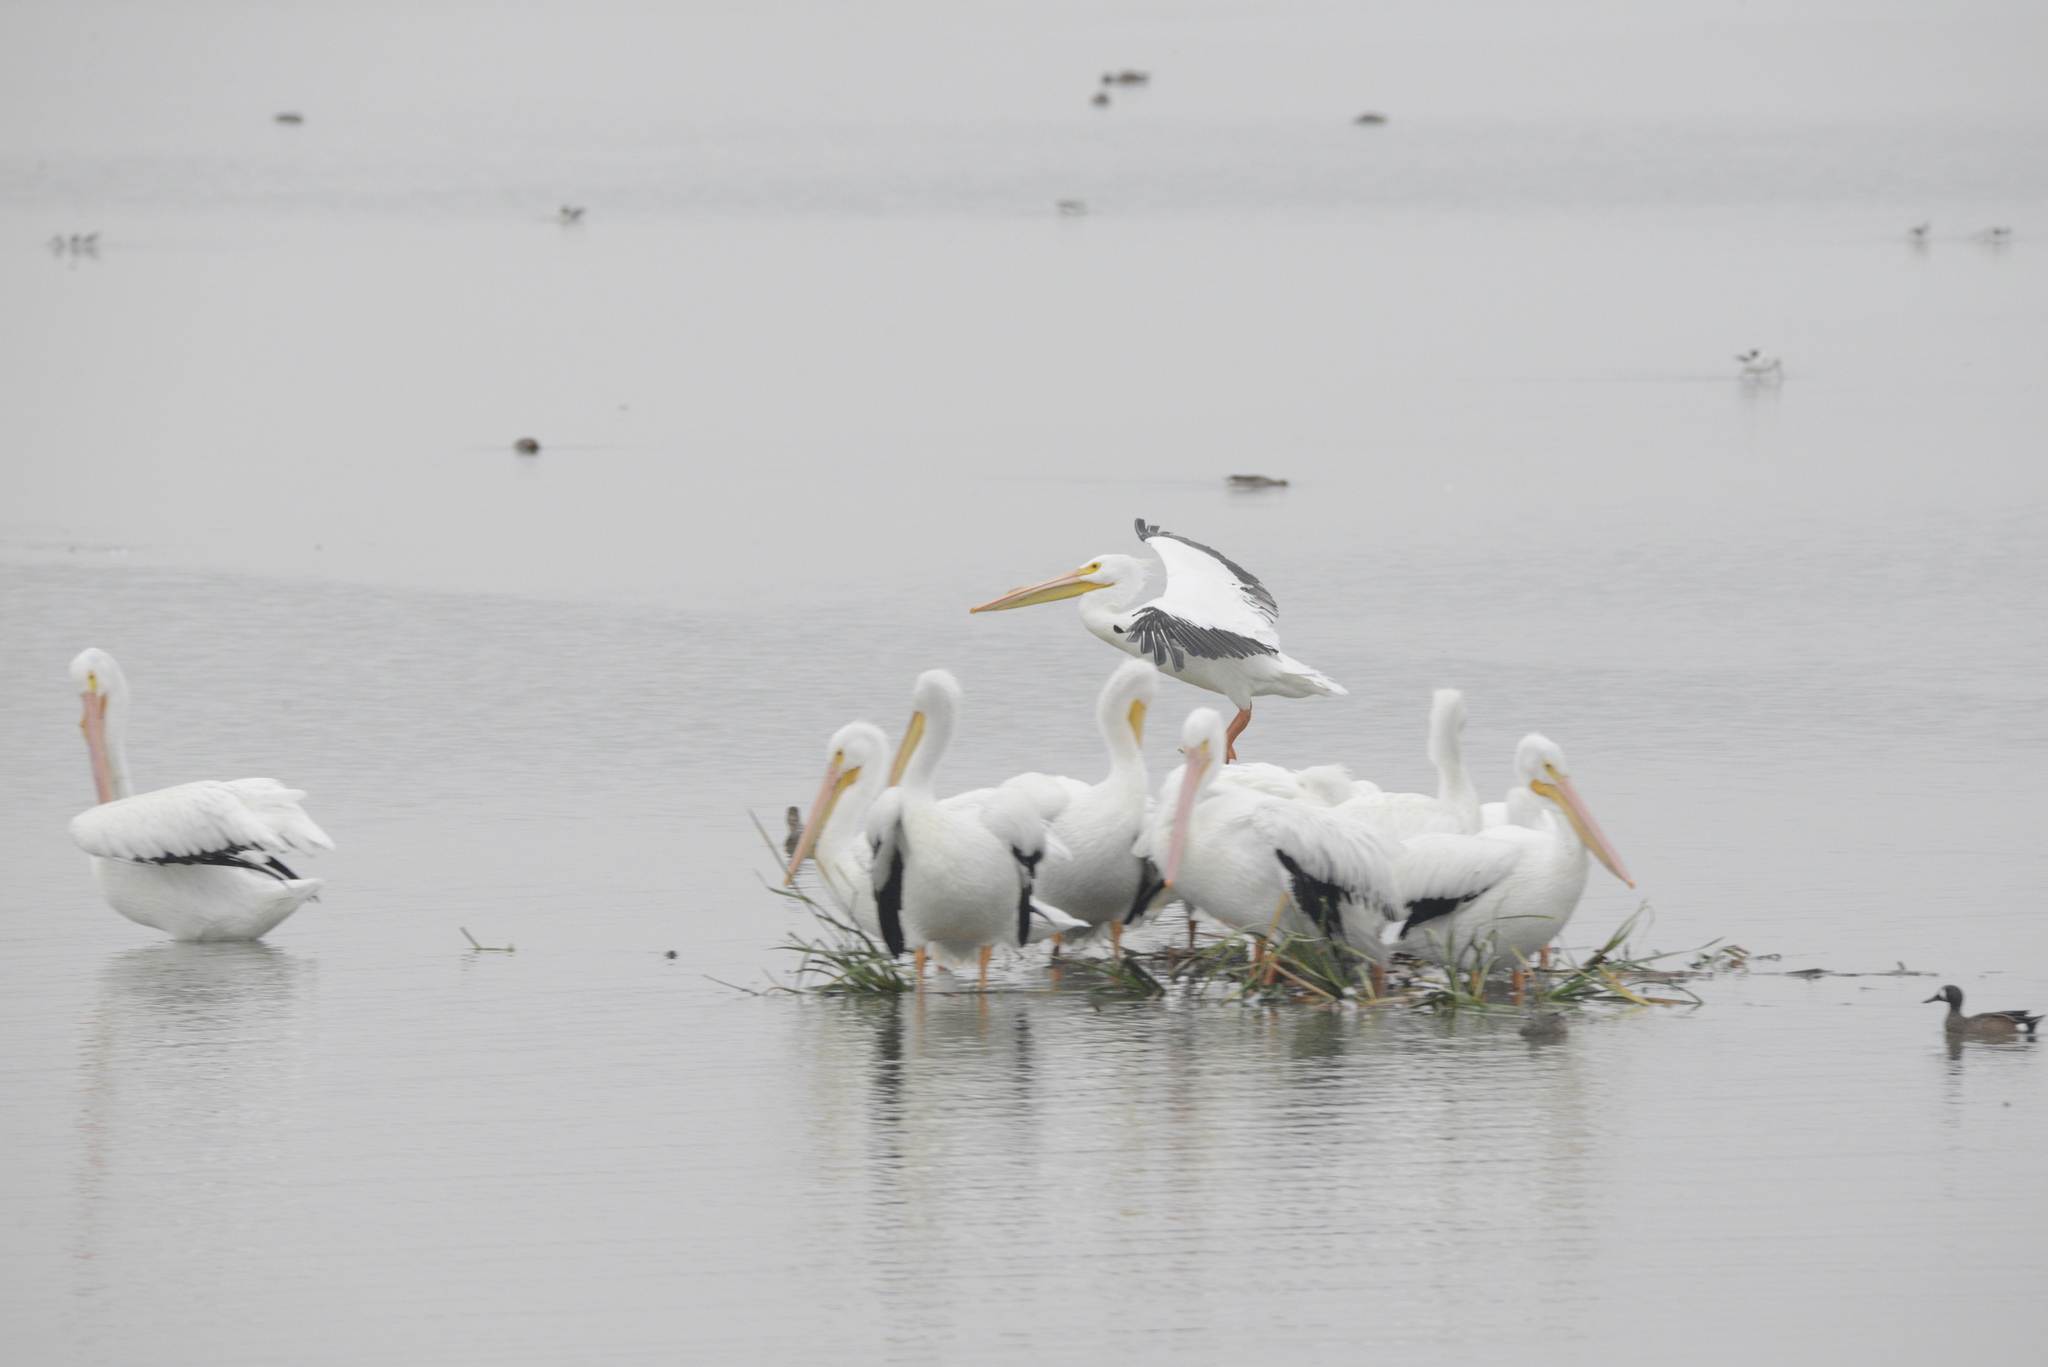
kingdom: Animalia
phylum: Chordata
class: Aves
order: Pelecaniformes
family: Pelecanidae
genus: Pelecanus
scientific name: Pelecanus erythrorhynchos
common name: American white pelican
